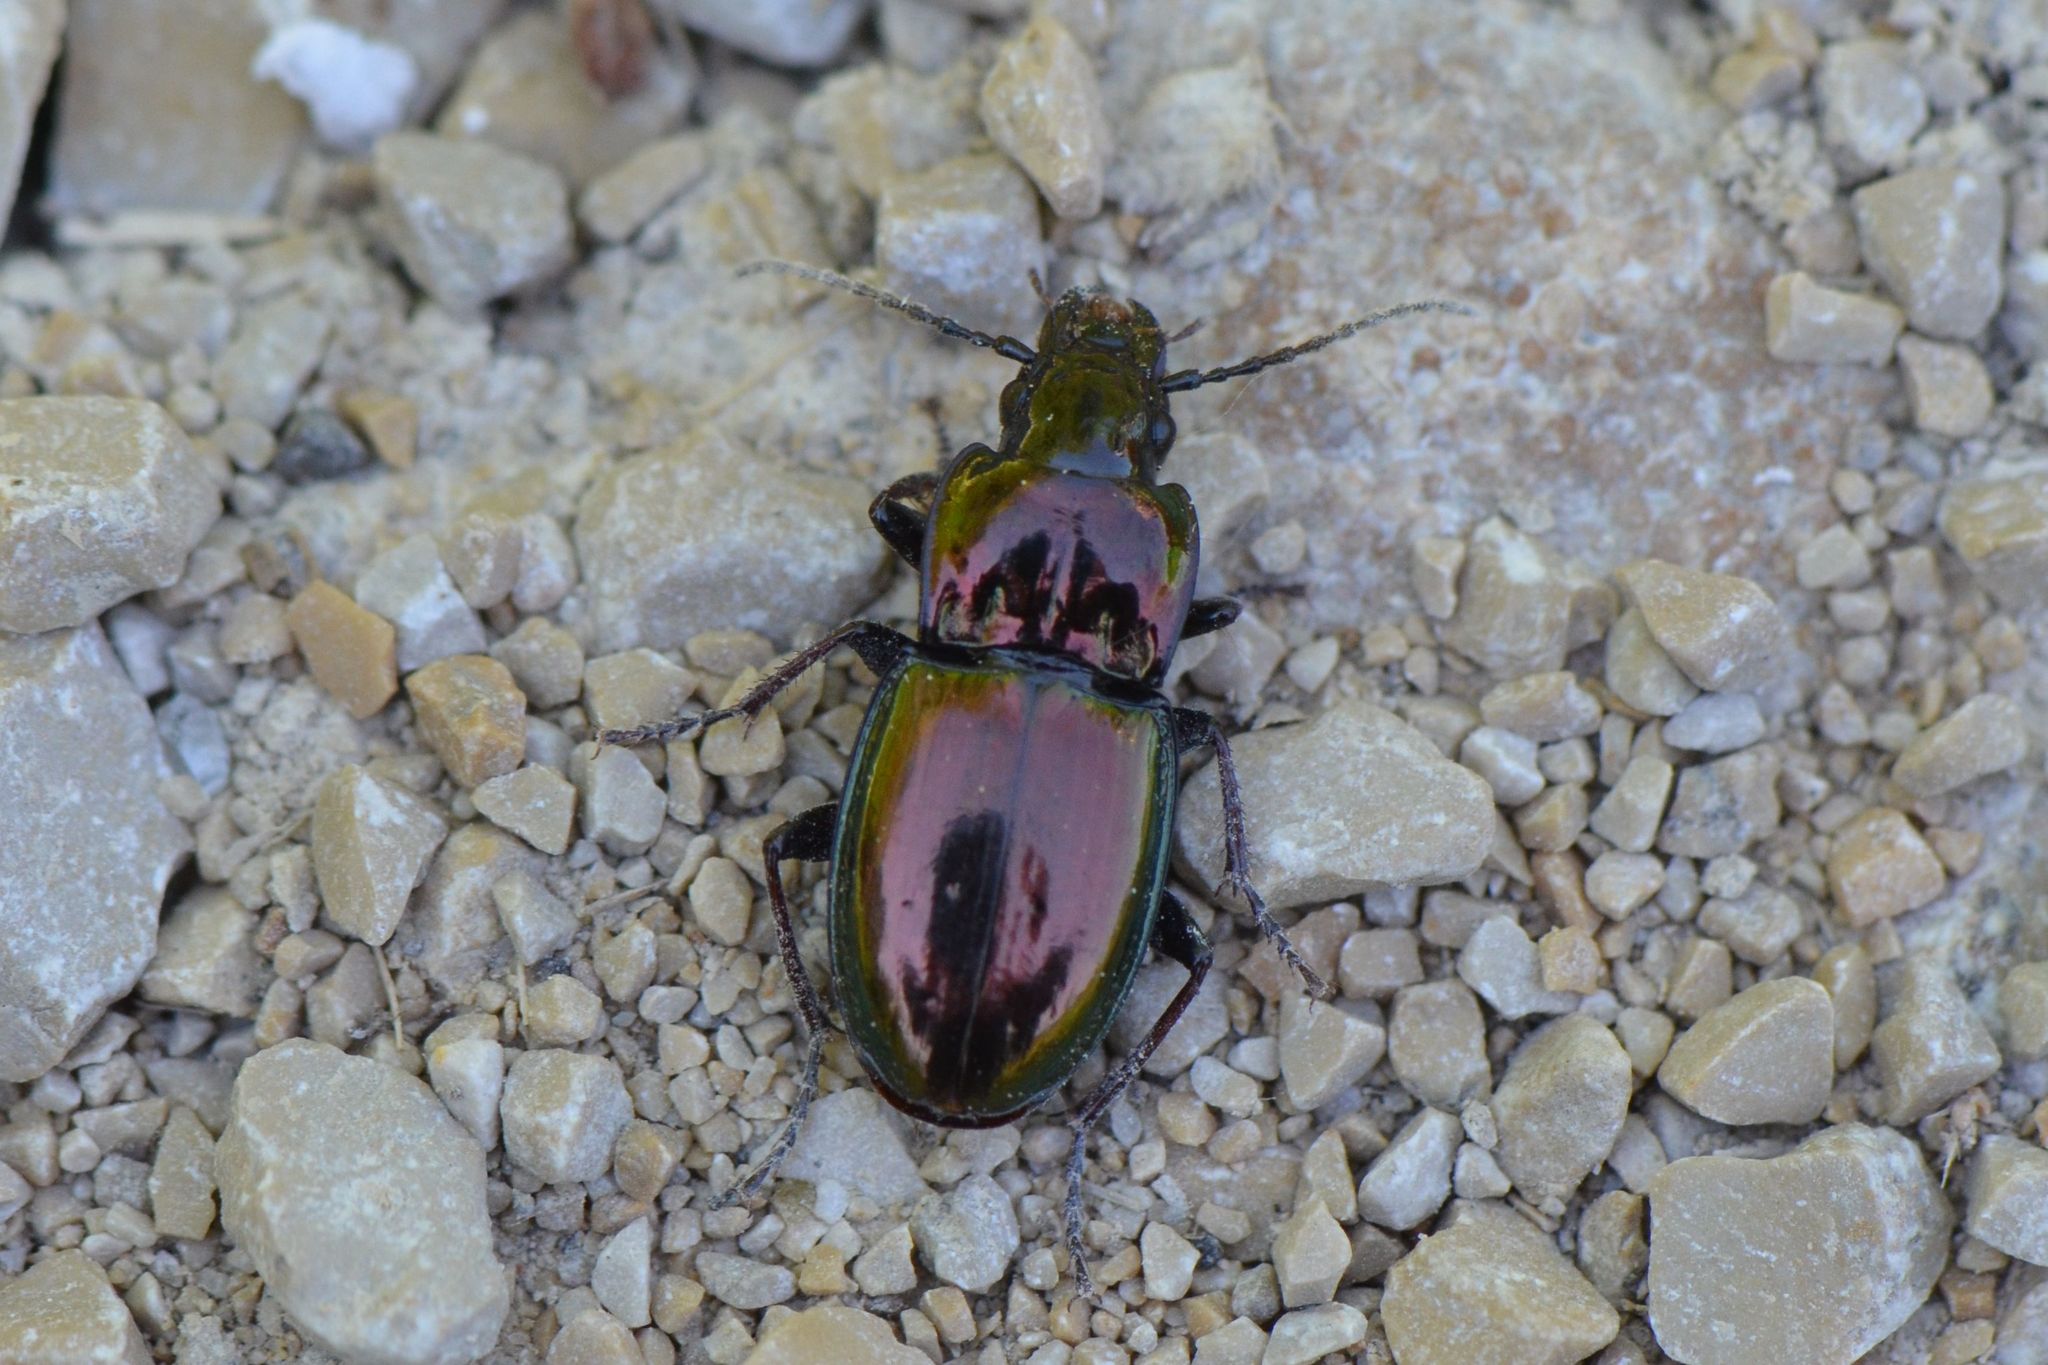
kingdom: Animalia
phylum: Arthropoda
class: Insecta
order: Coleoptera
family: Carabidae
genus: Pterostichus
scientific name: Pterostichus burmeisteri
